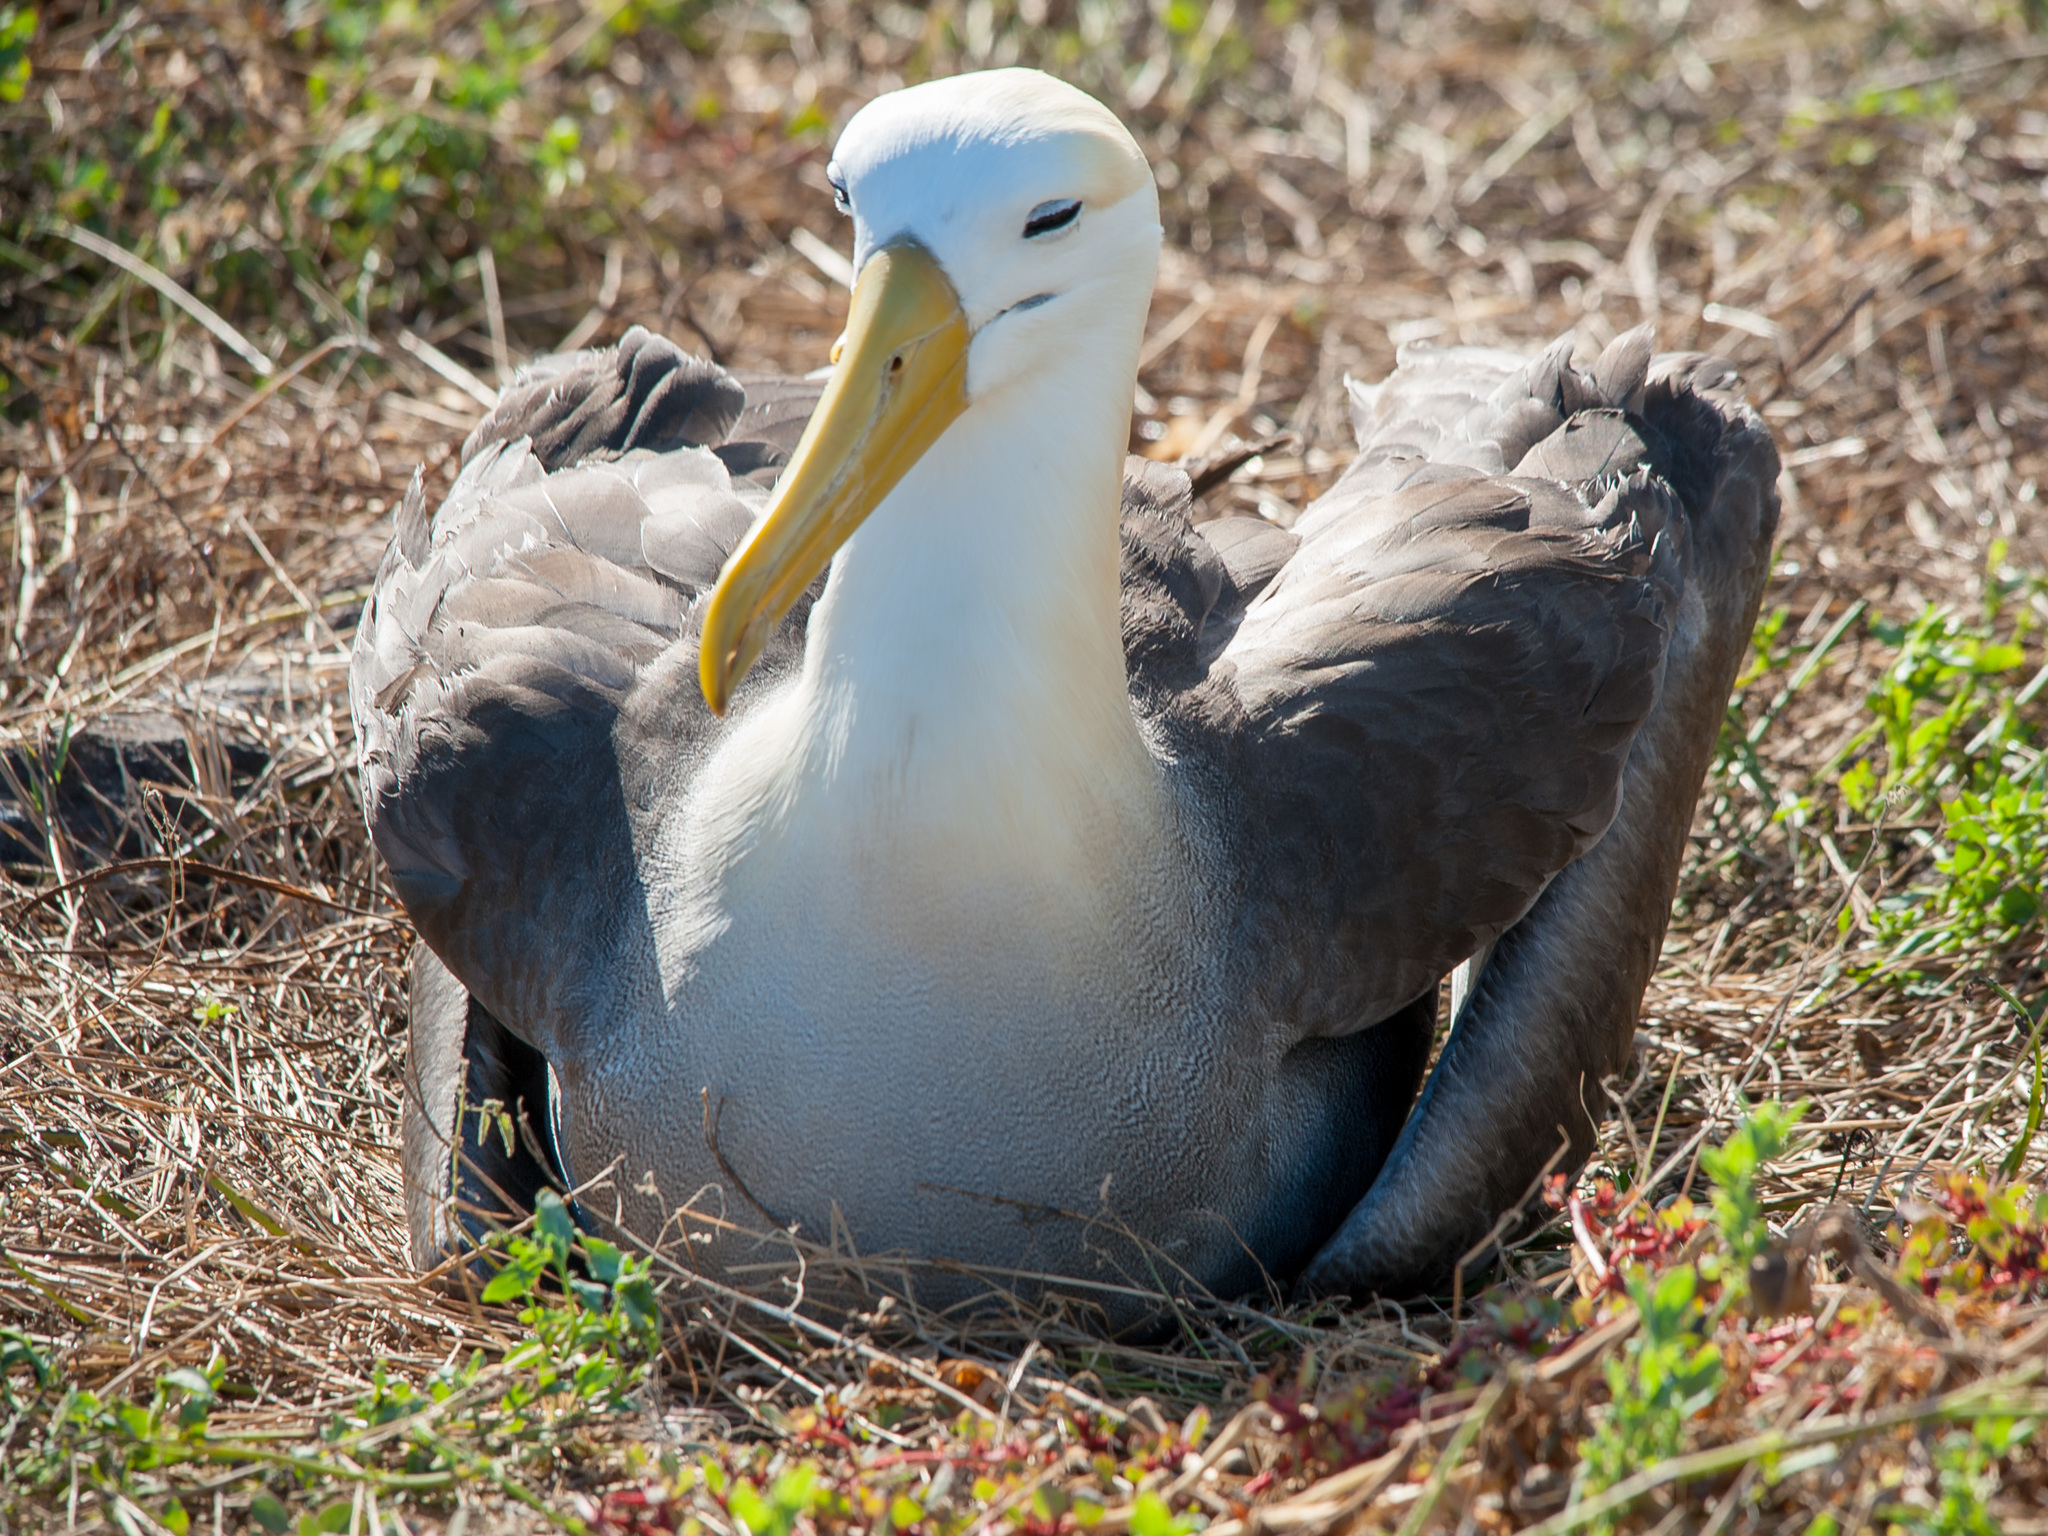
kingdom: Animalia
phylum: Chordata
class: Aves
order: Procellariiformes
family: Diomedeidae
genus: Phoebastria
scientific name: Phoebastria irrorata
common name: Waved albatross
